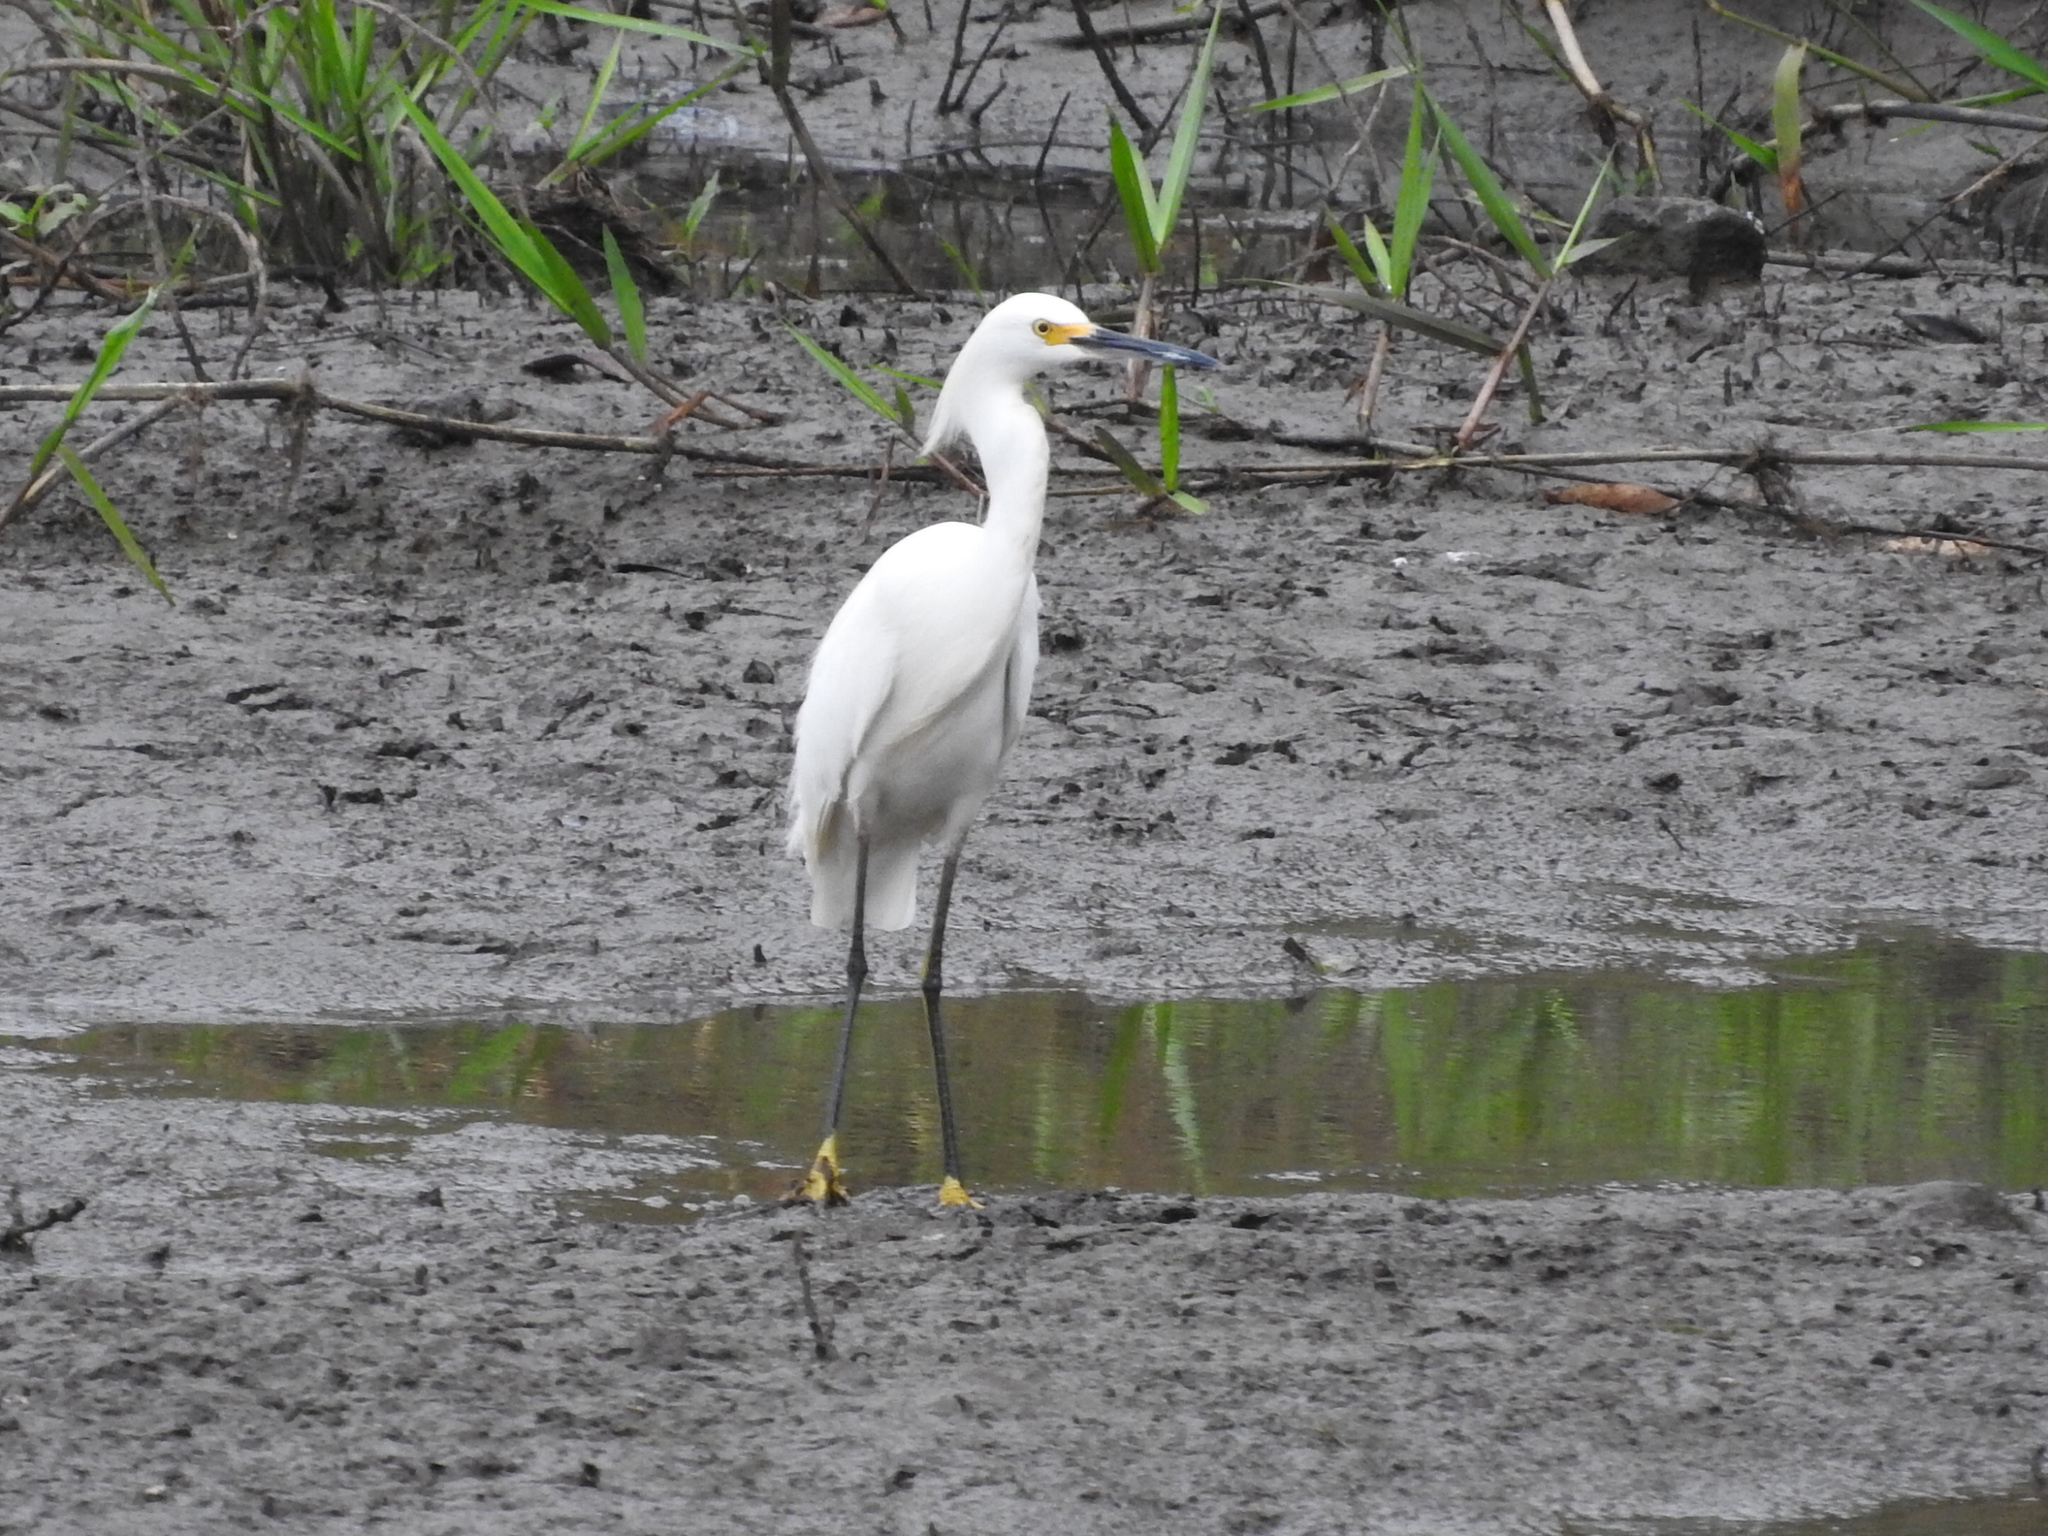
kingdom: Animalia
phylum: Chordata
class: Aves
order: Pelecaniformes
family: Ardeidae
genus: Egretta
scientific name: Egretta thula
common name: Snowy egret
